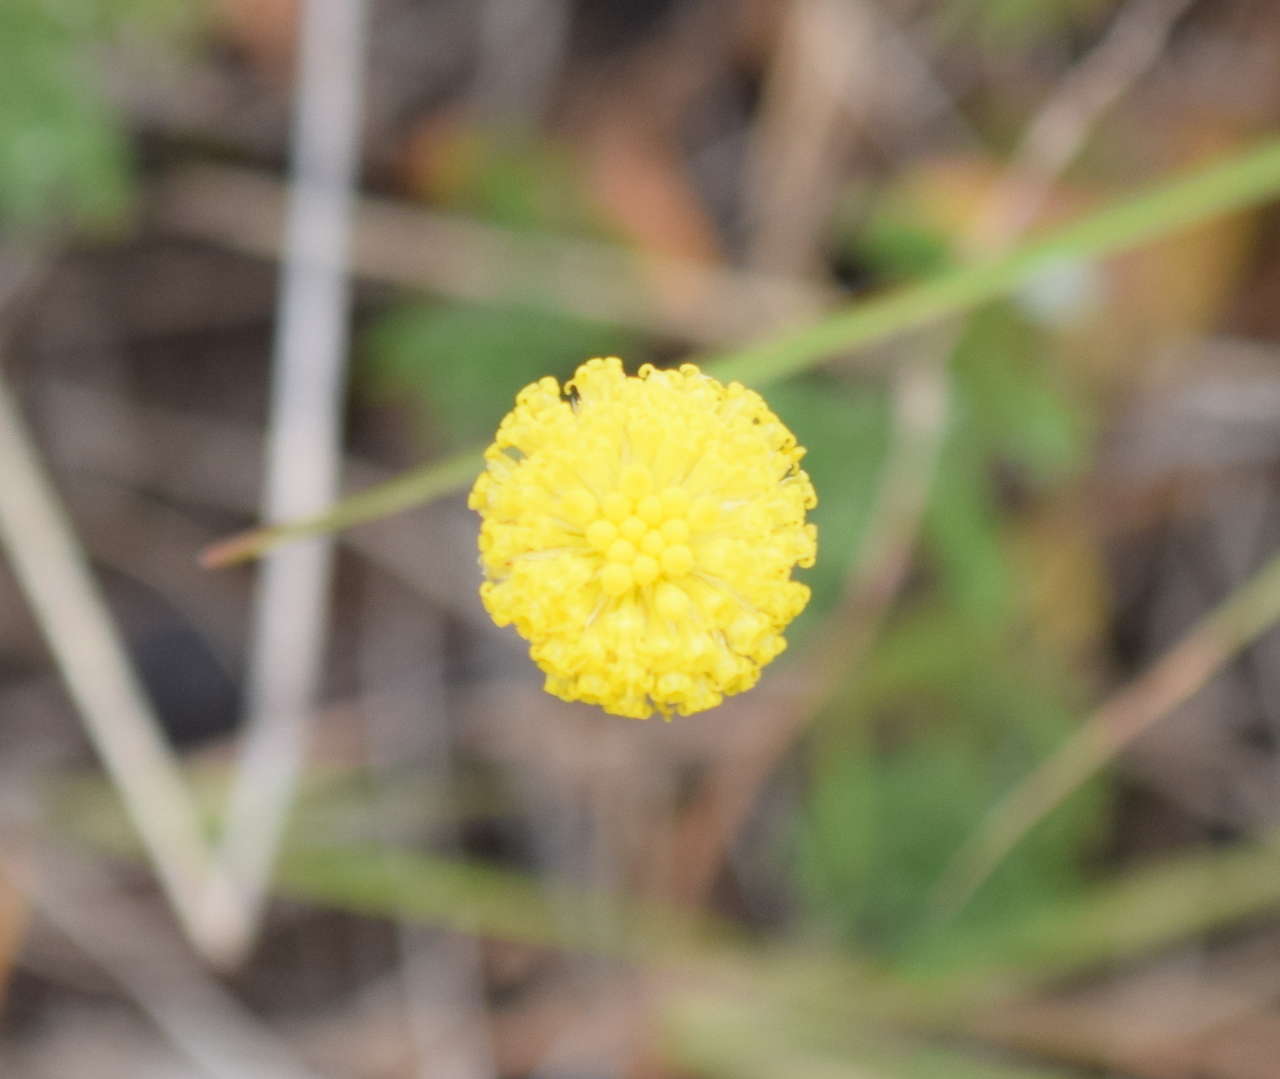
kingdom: Plantae
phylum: Tracheophyta
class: Magnoliopsida
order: Asterales
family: Asteraceae
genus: Leptorhynchos
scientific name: Leptorhynchos squamatus
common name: Scaly-buttons
